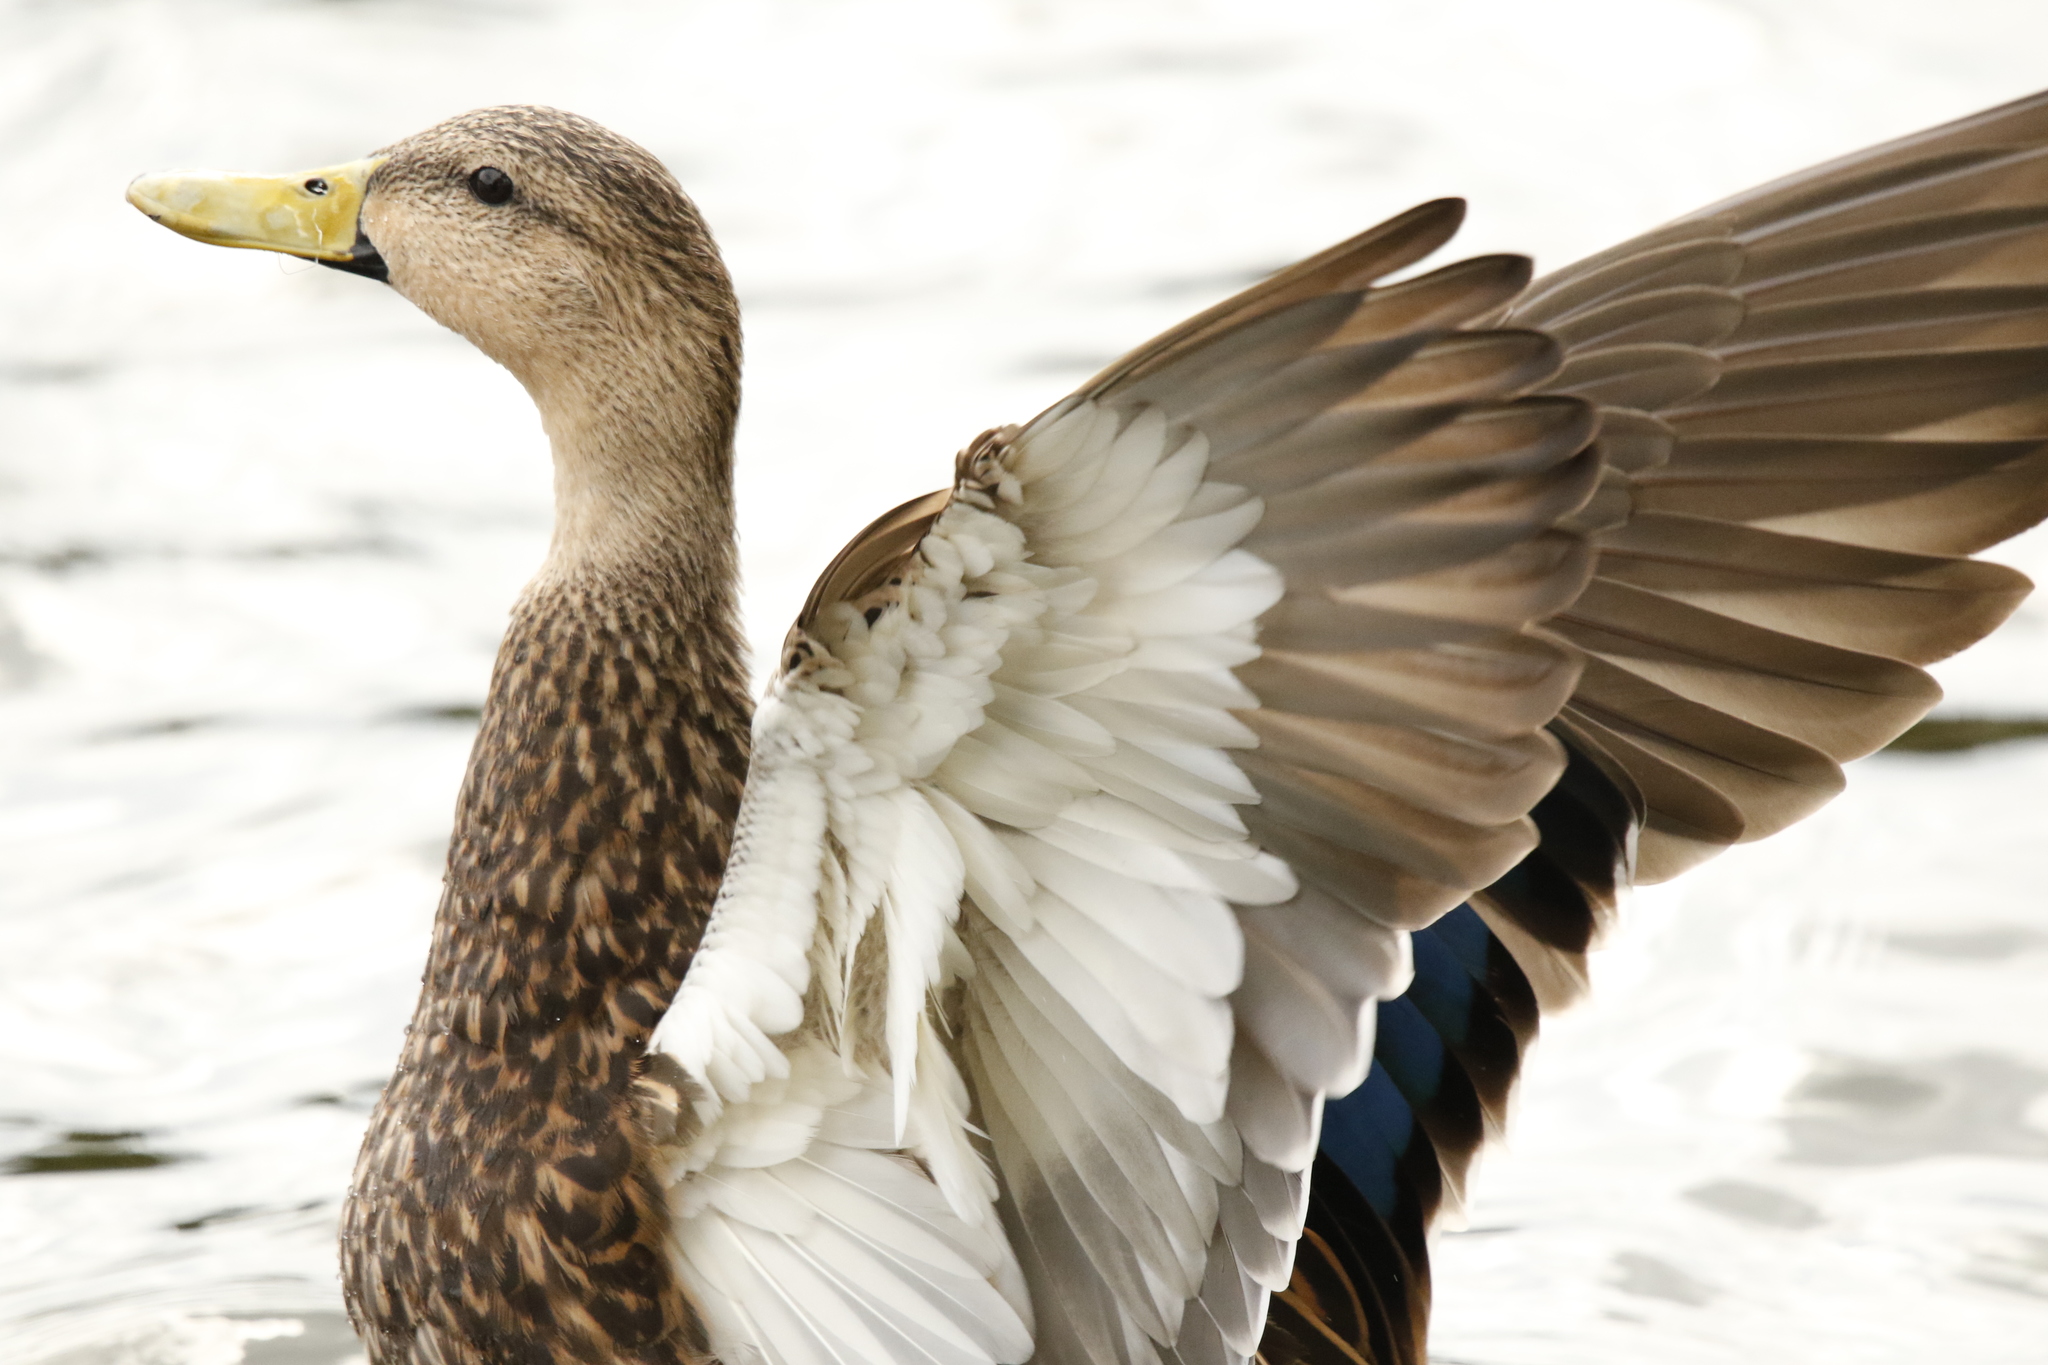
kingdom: Animalia
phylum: Chordata
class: Aves
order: Anseriformes
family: Anatidae
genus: Anas
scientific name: Anas fulvigula
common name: Mottled duck
